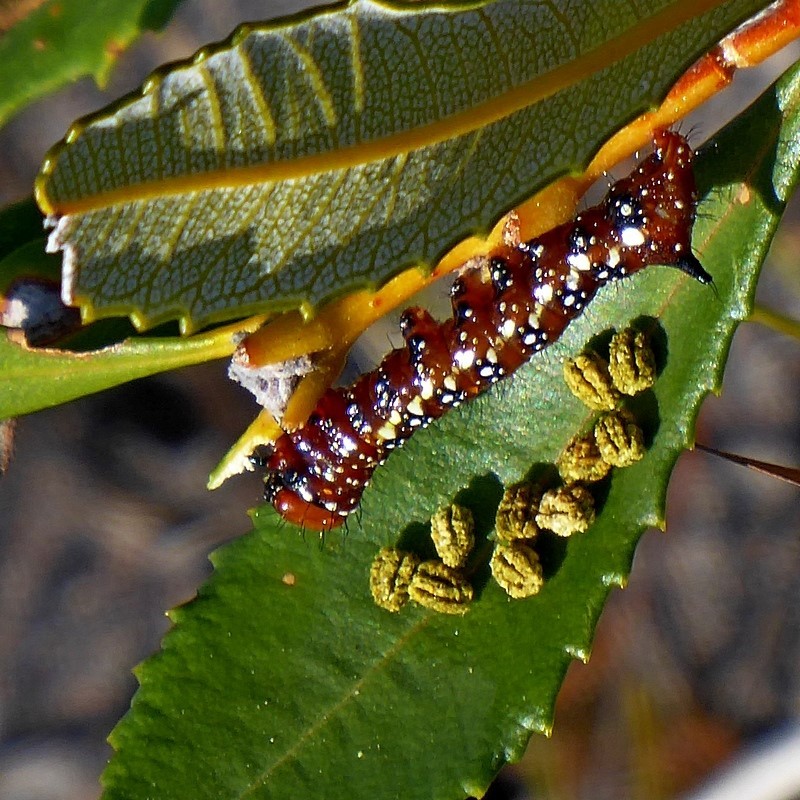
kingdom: Animalia
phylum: Arthropoda
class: Insecta
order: Lepidoptera
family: Notodontidae
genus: Psalidostetha
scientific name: Psalidostetha banksiae
